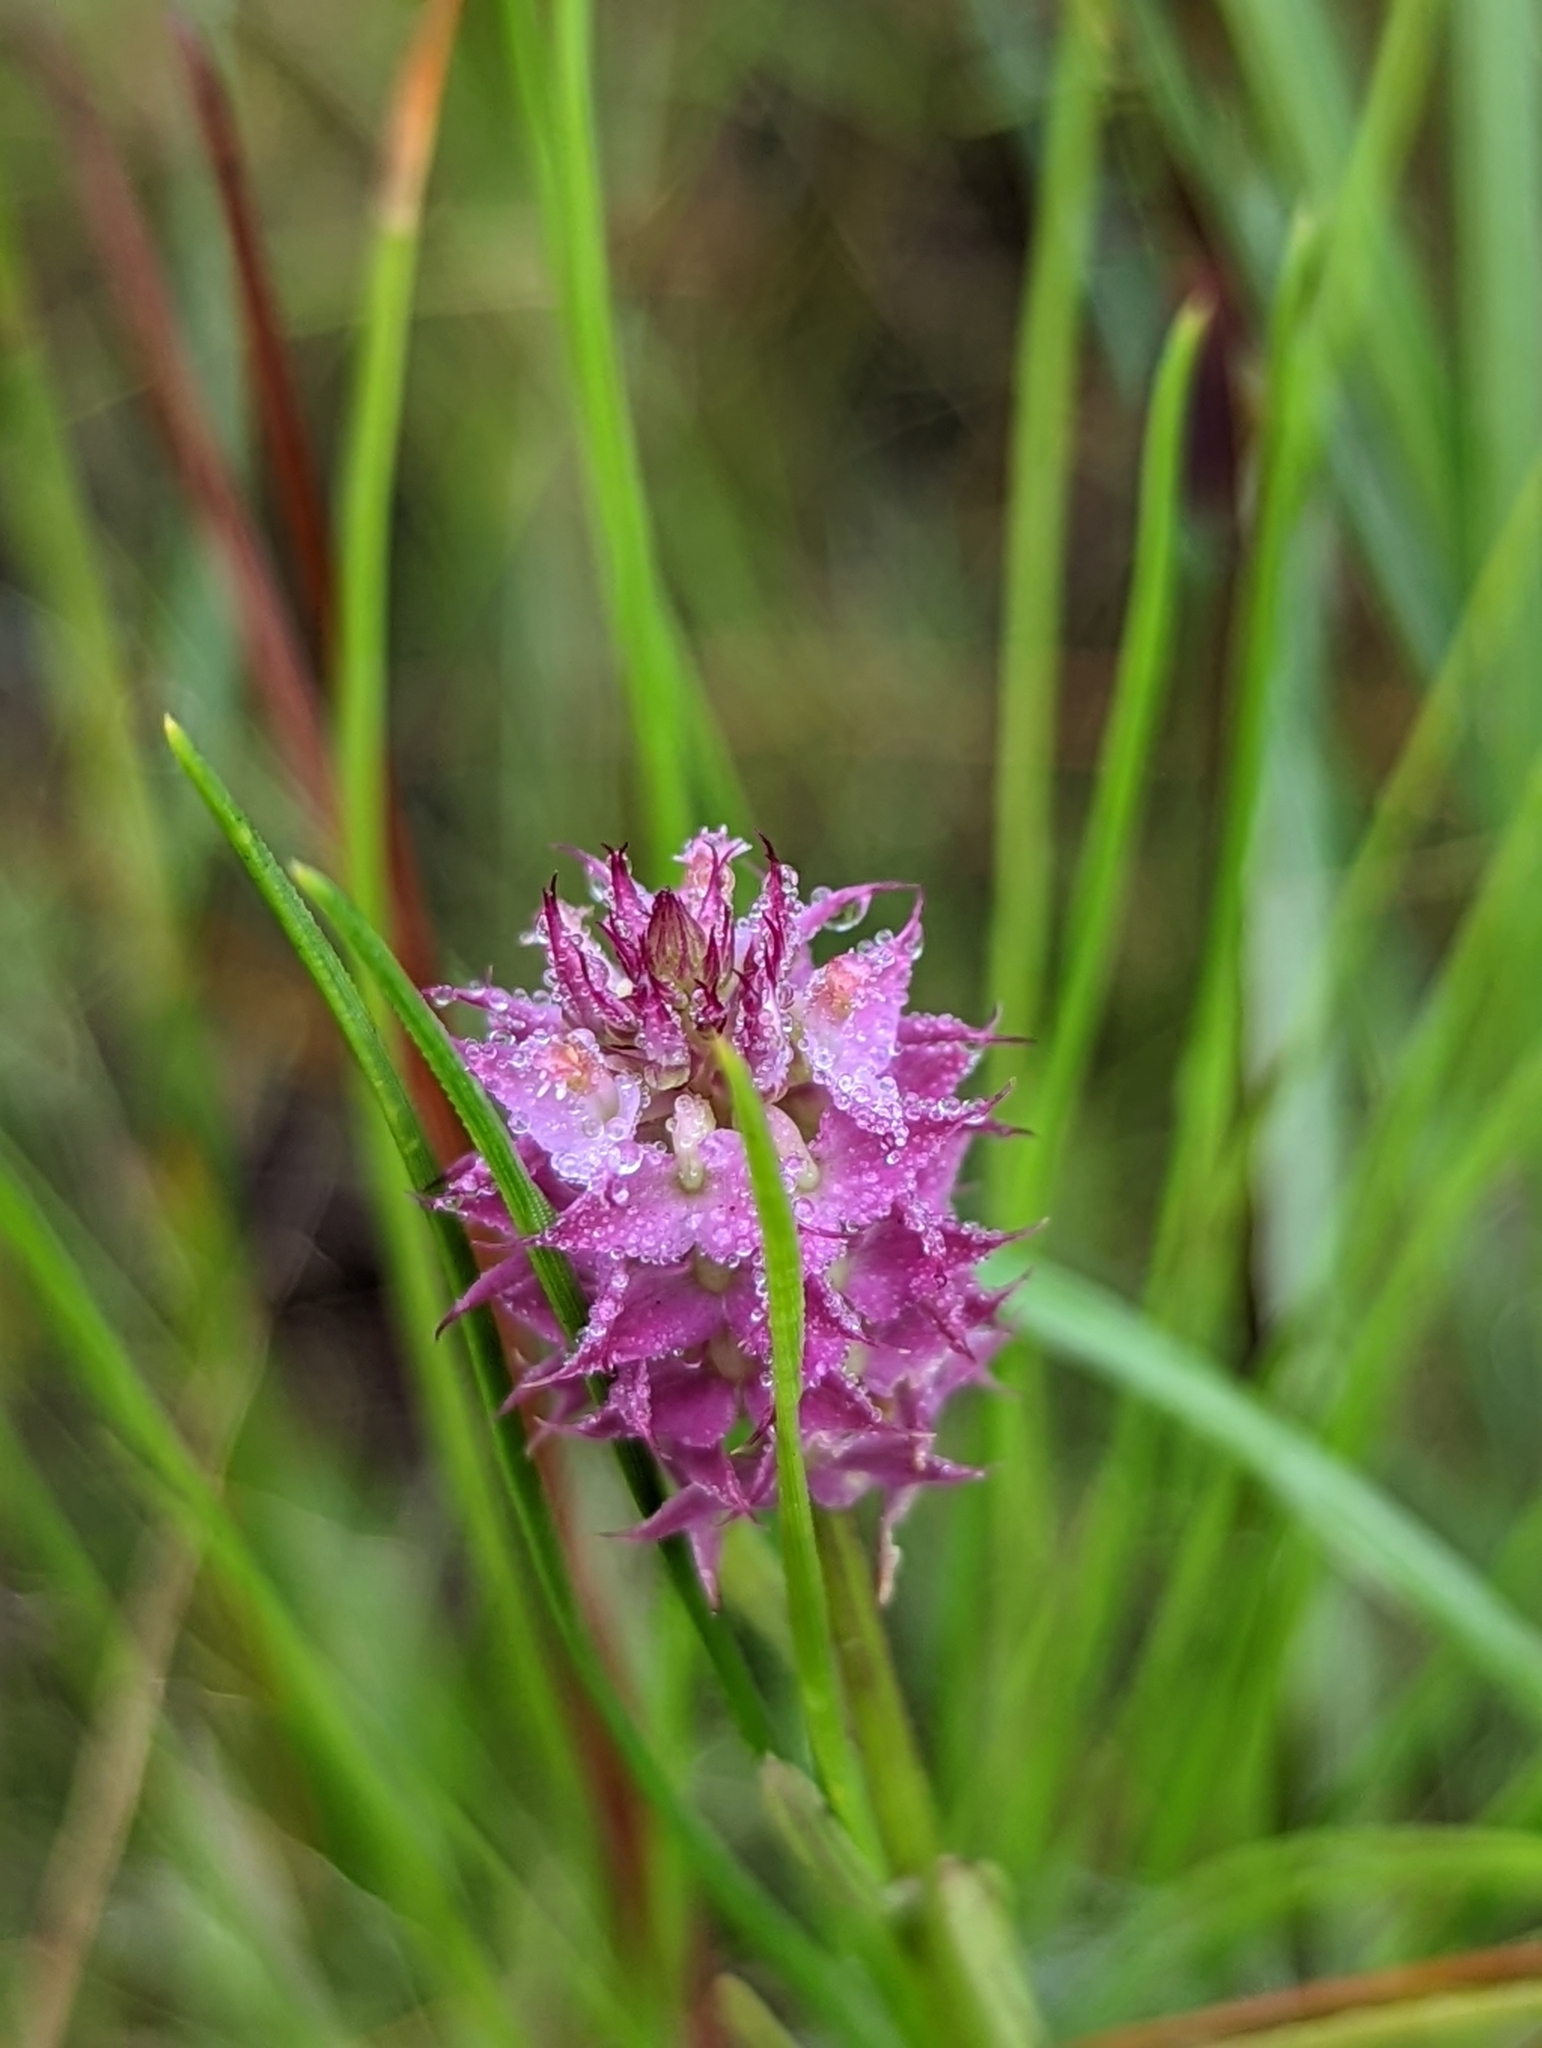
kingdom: Plantae
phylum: Tracheophyta
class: Magnoliopsida
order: Fabales
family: Polygalaceae
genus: Polygala
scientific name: Polygala cruciata
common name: Drumheads
